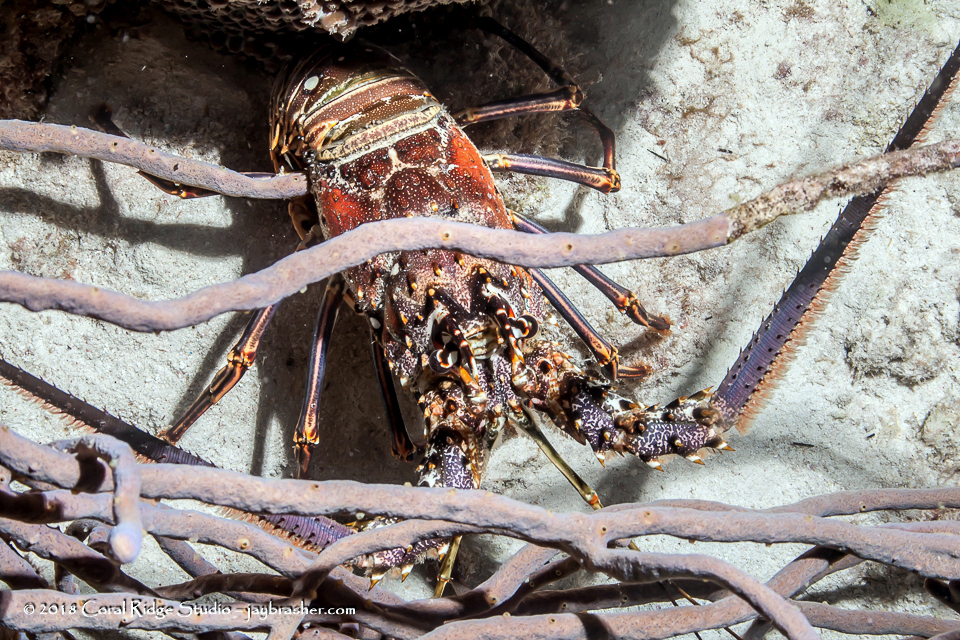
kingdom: Animalia
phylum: Arthropoda
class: Malacostraca
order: Decapoda
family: Palinuridae
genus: Panulirus
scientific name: Panulirus argus
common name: Caribbean spiny lobster
